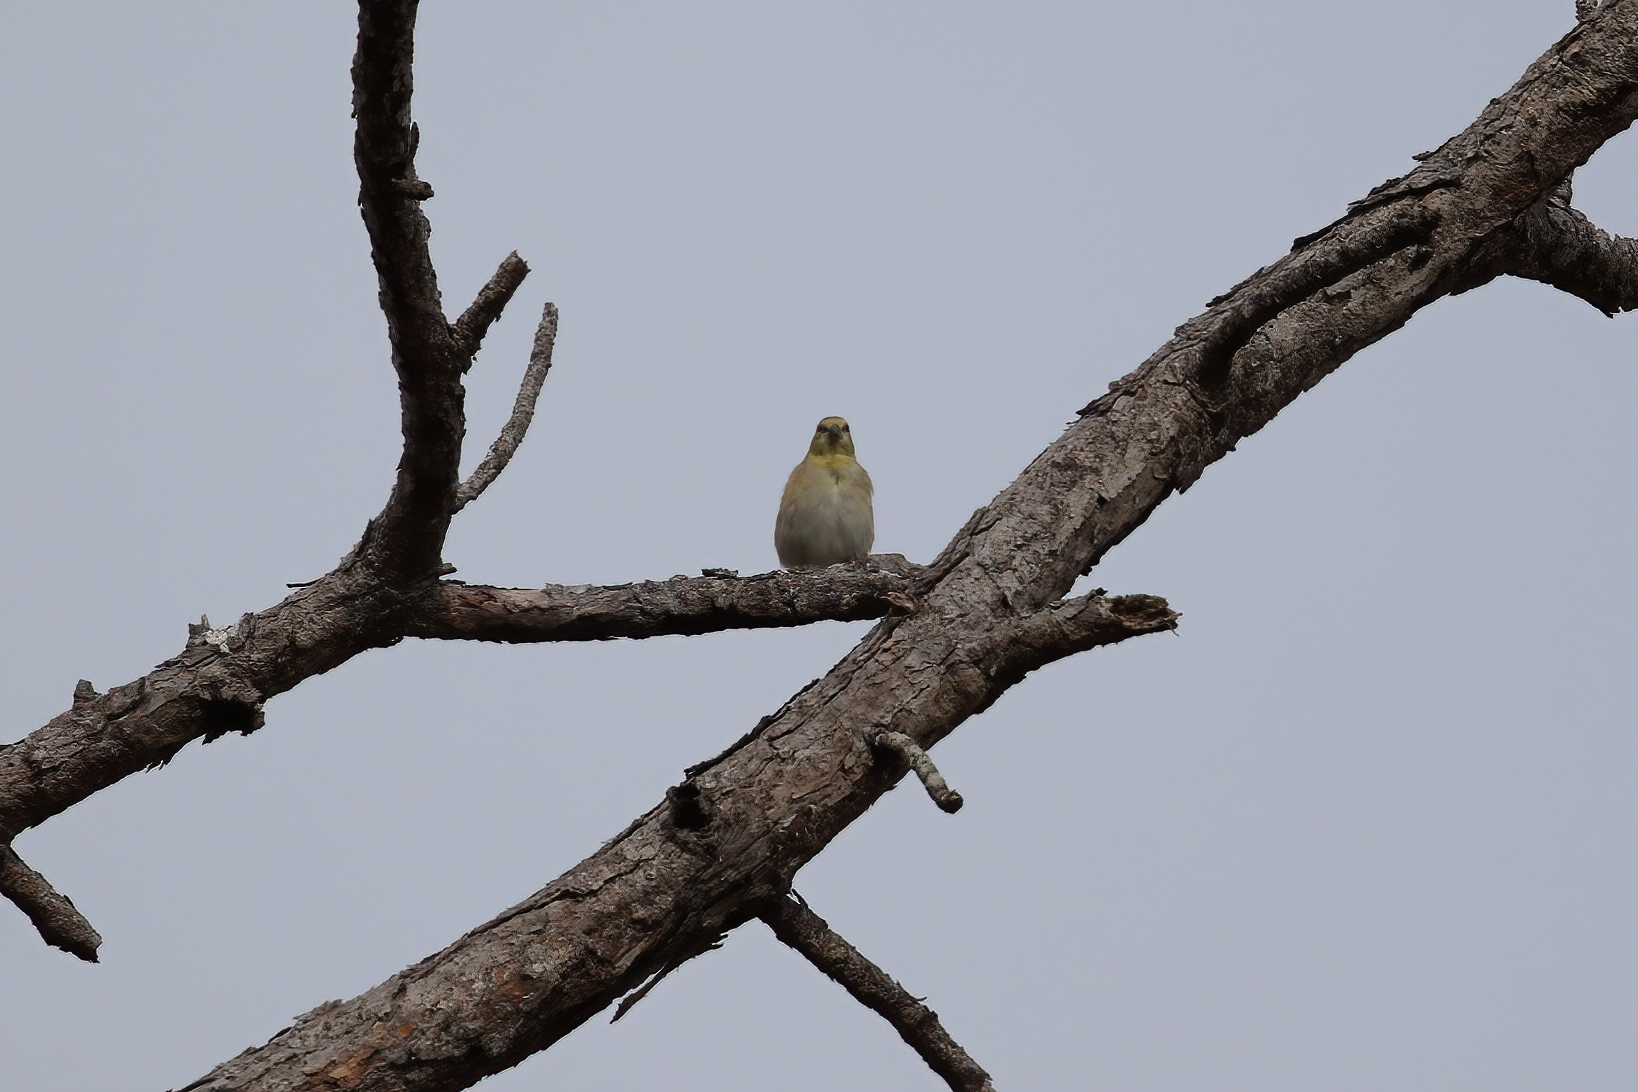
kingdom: Animalia
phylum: Chordata
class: Aves
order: Passeriformes
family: Fringillidae
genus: Spinus
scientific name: Spinus tristis
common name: American goldfinch
